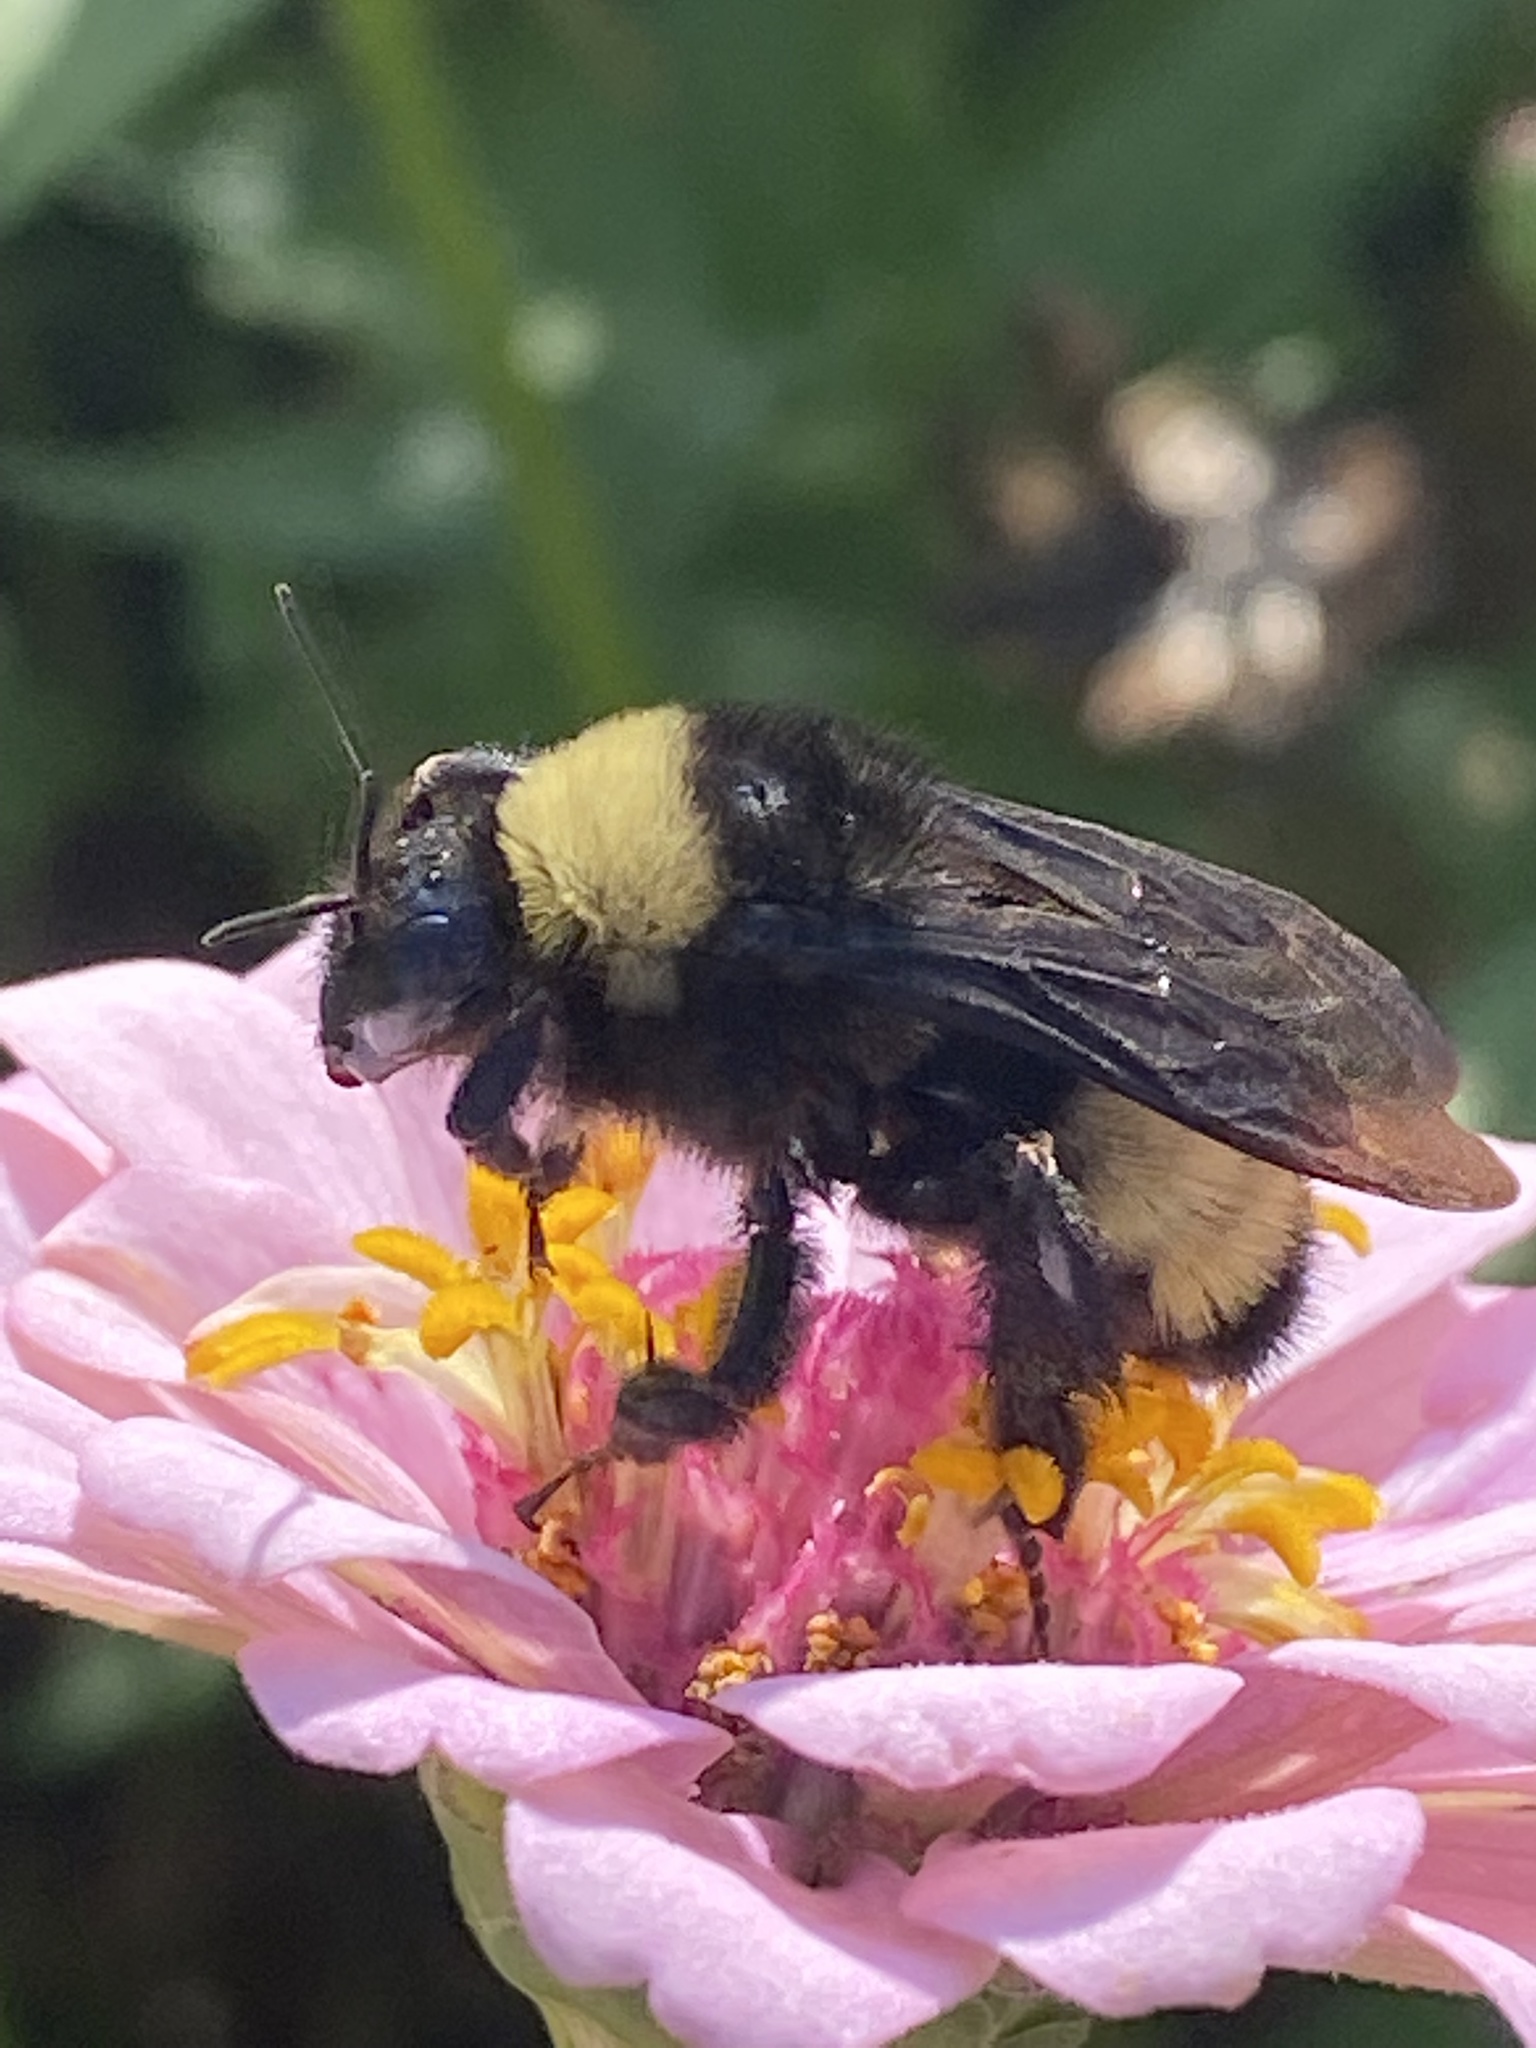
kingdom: Animalia
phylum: Arthropoda
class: Insecta
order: Hymenoptera
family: Apidae
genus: Bombus
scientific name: Bombus pensylvanicus
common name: Bumble bee
